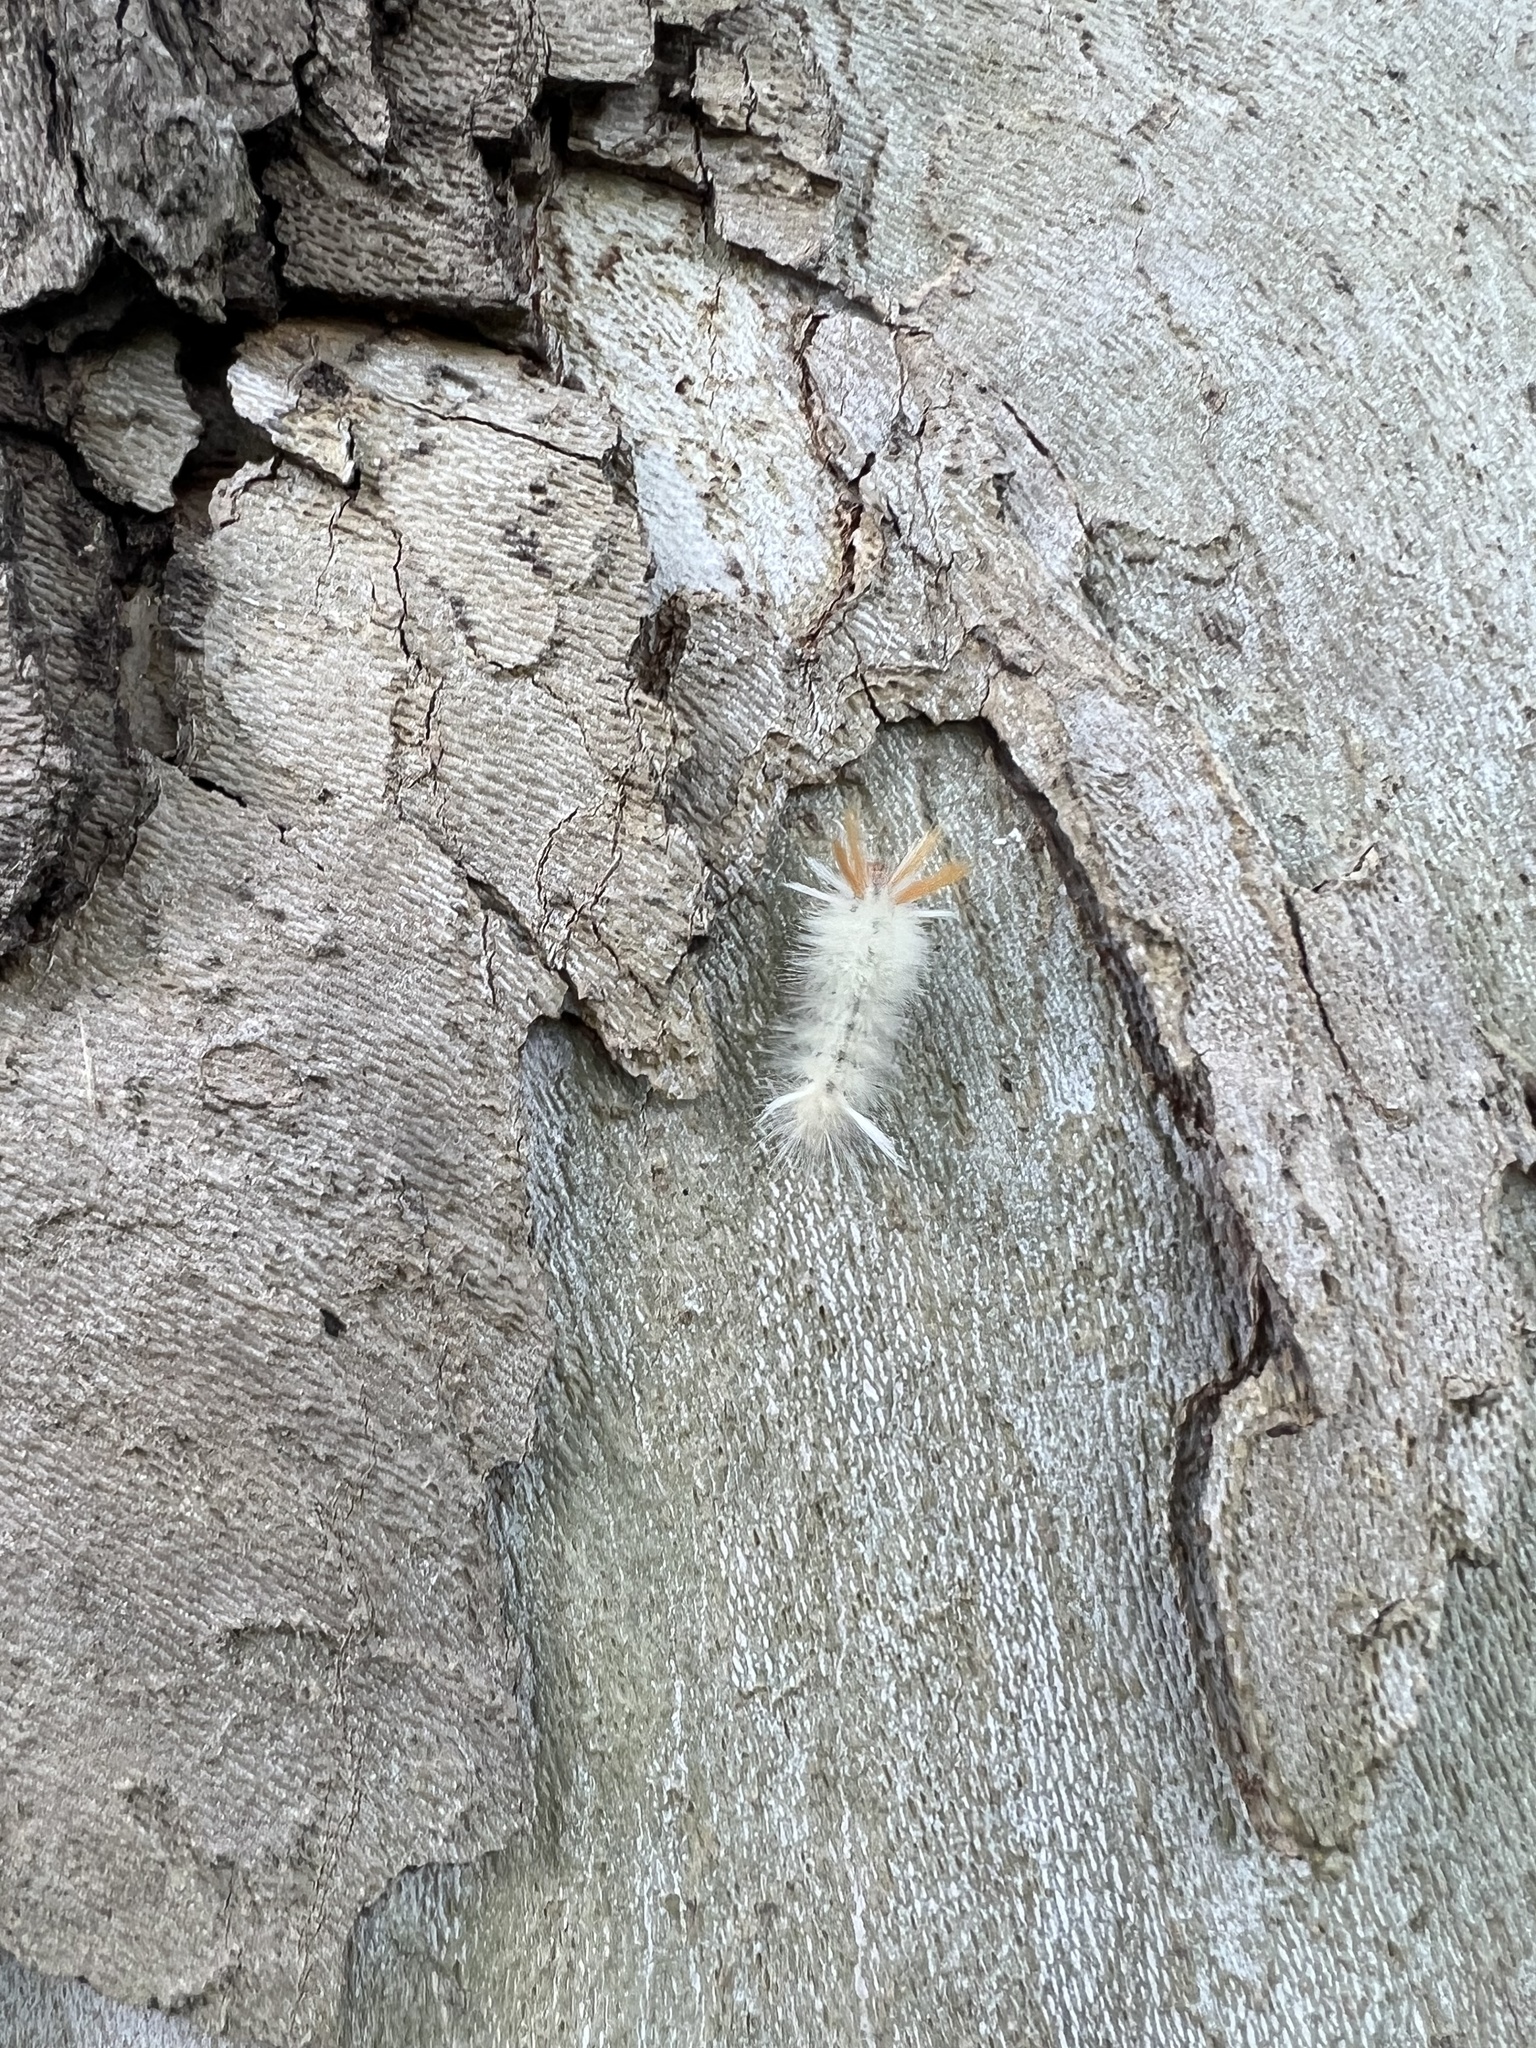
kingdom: Animalia
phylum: Arthropoda
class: Insecta
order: Lepidoptera
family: Erebidae
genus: Halysidota
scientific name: Halysidota harrisii
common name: Sycamore tussock moth
